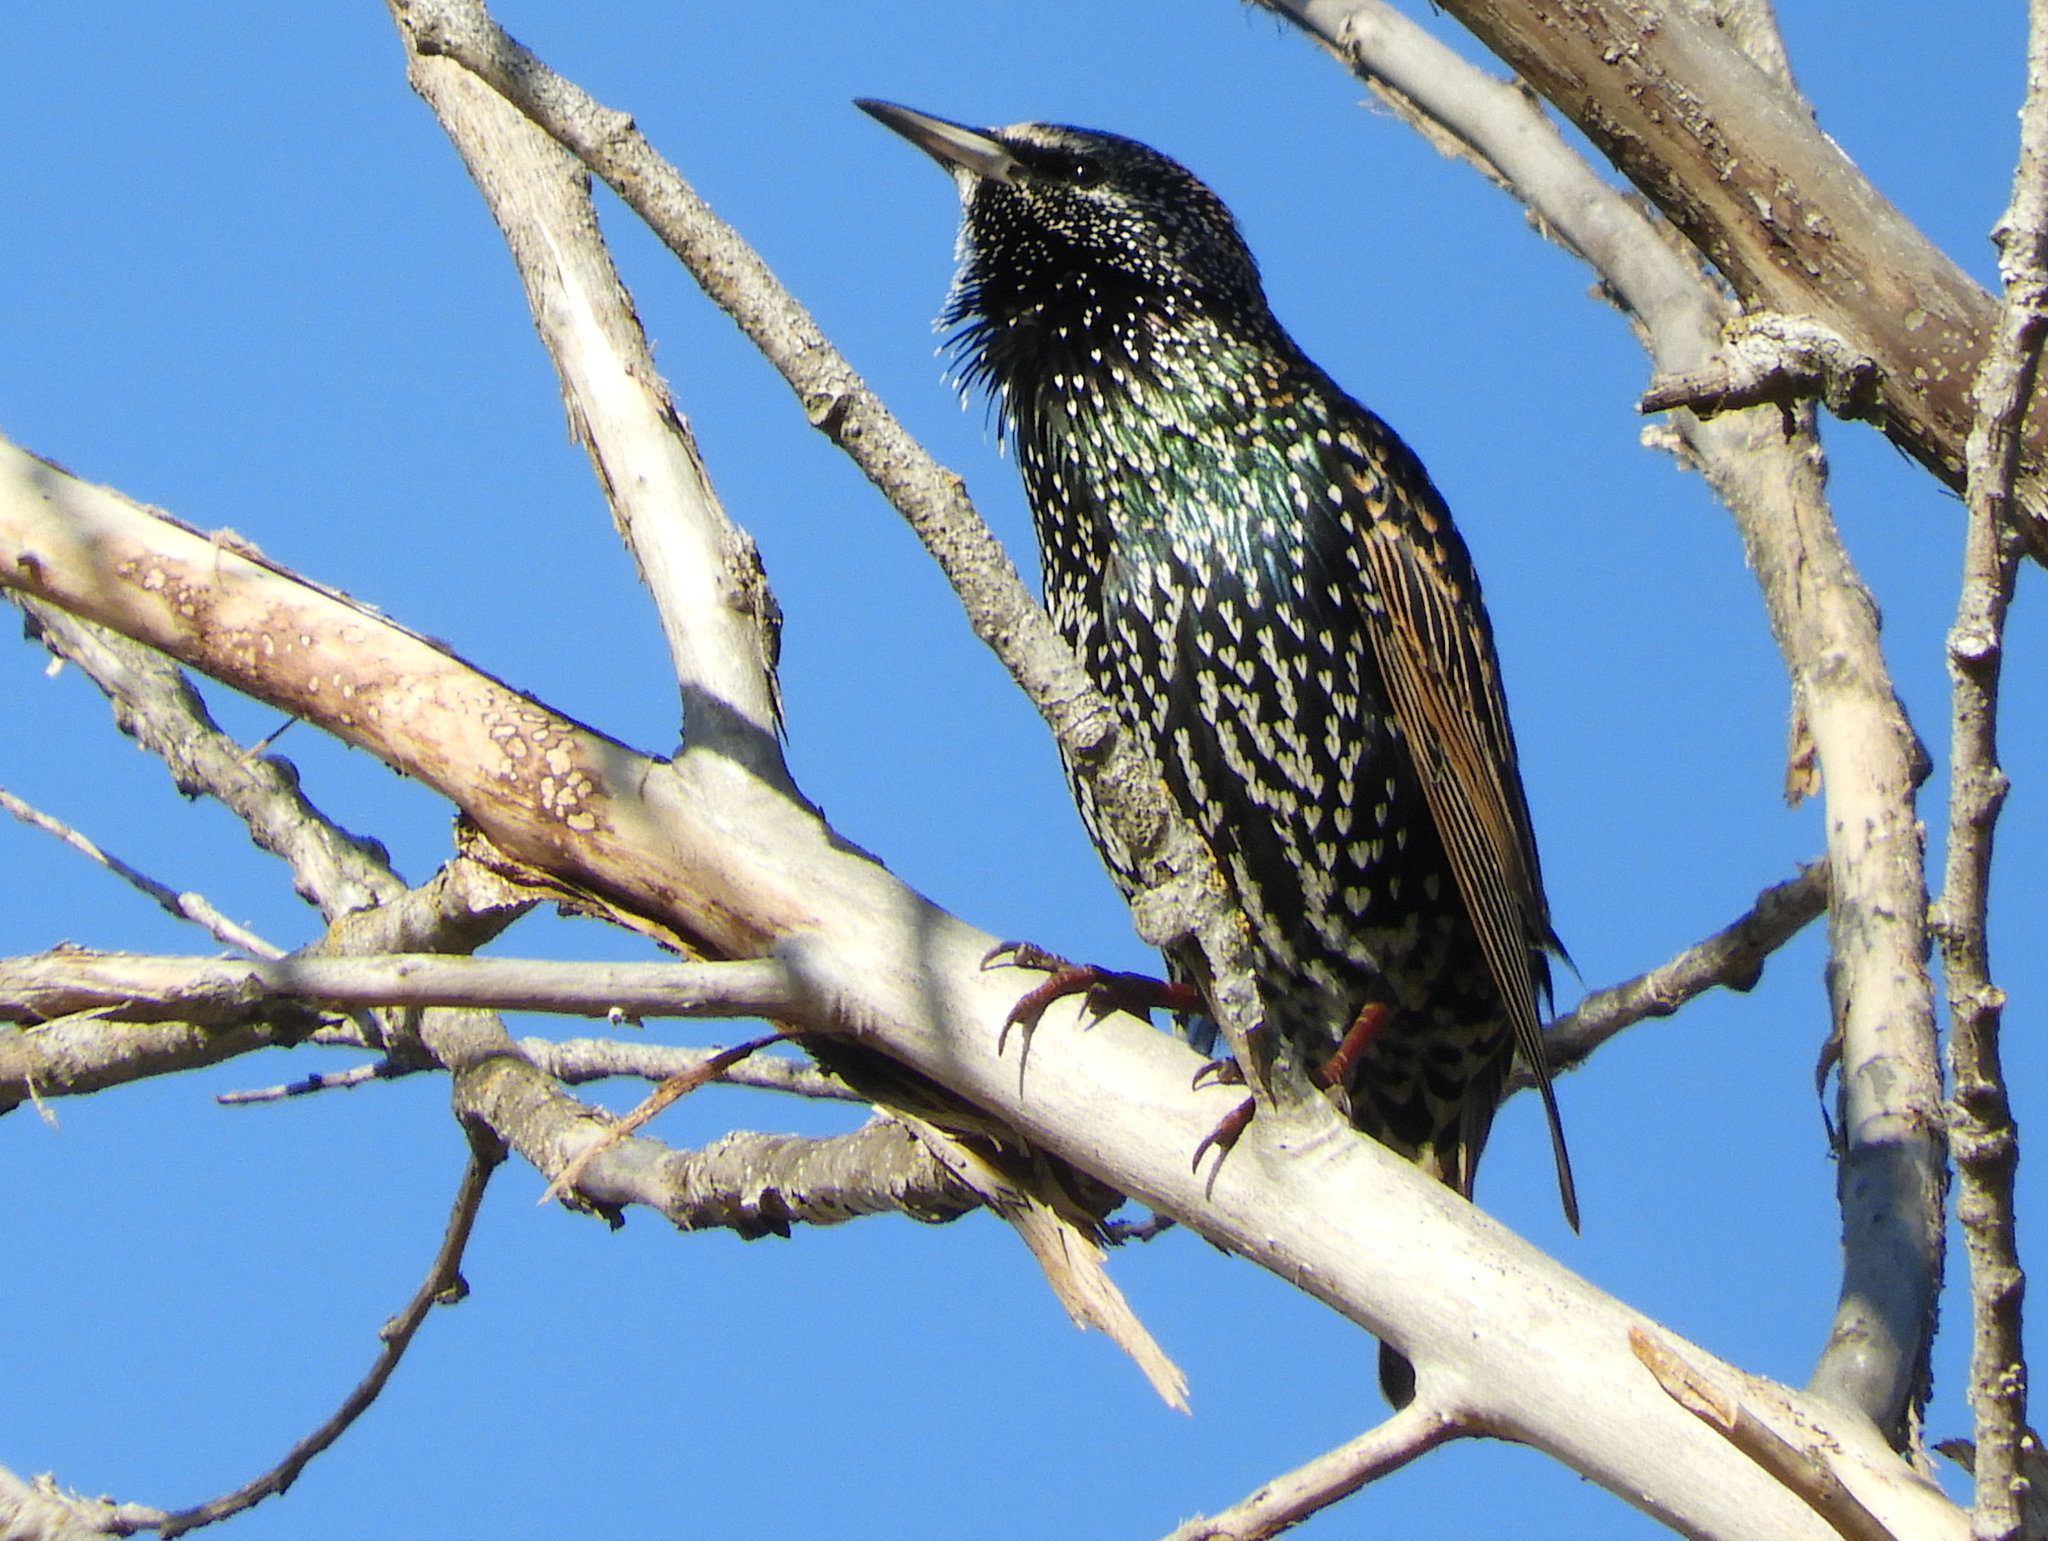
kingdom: Animalia
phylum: Chordata
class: Aves
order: Passeriformes
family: Sturnidae
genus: Sturnus
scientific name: Sturnus vulgaris
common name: Common starling
